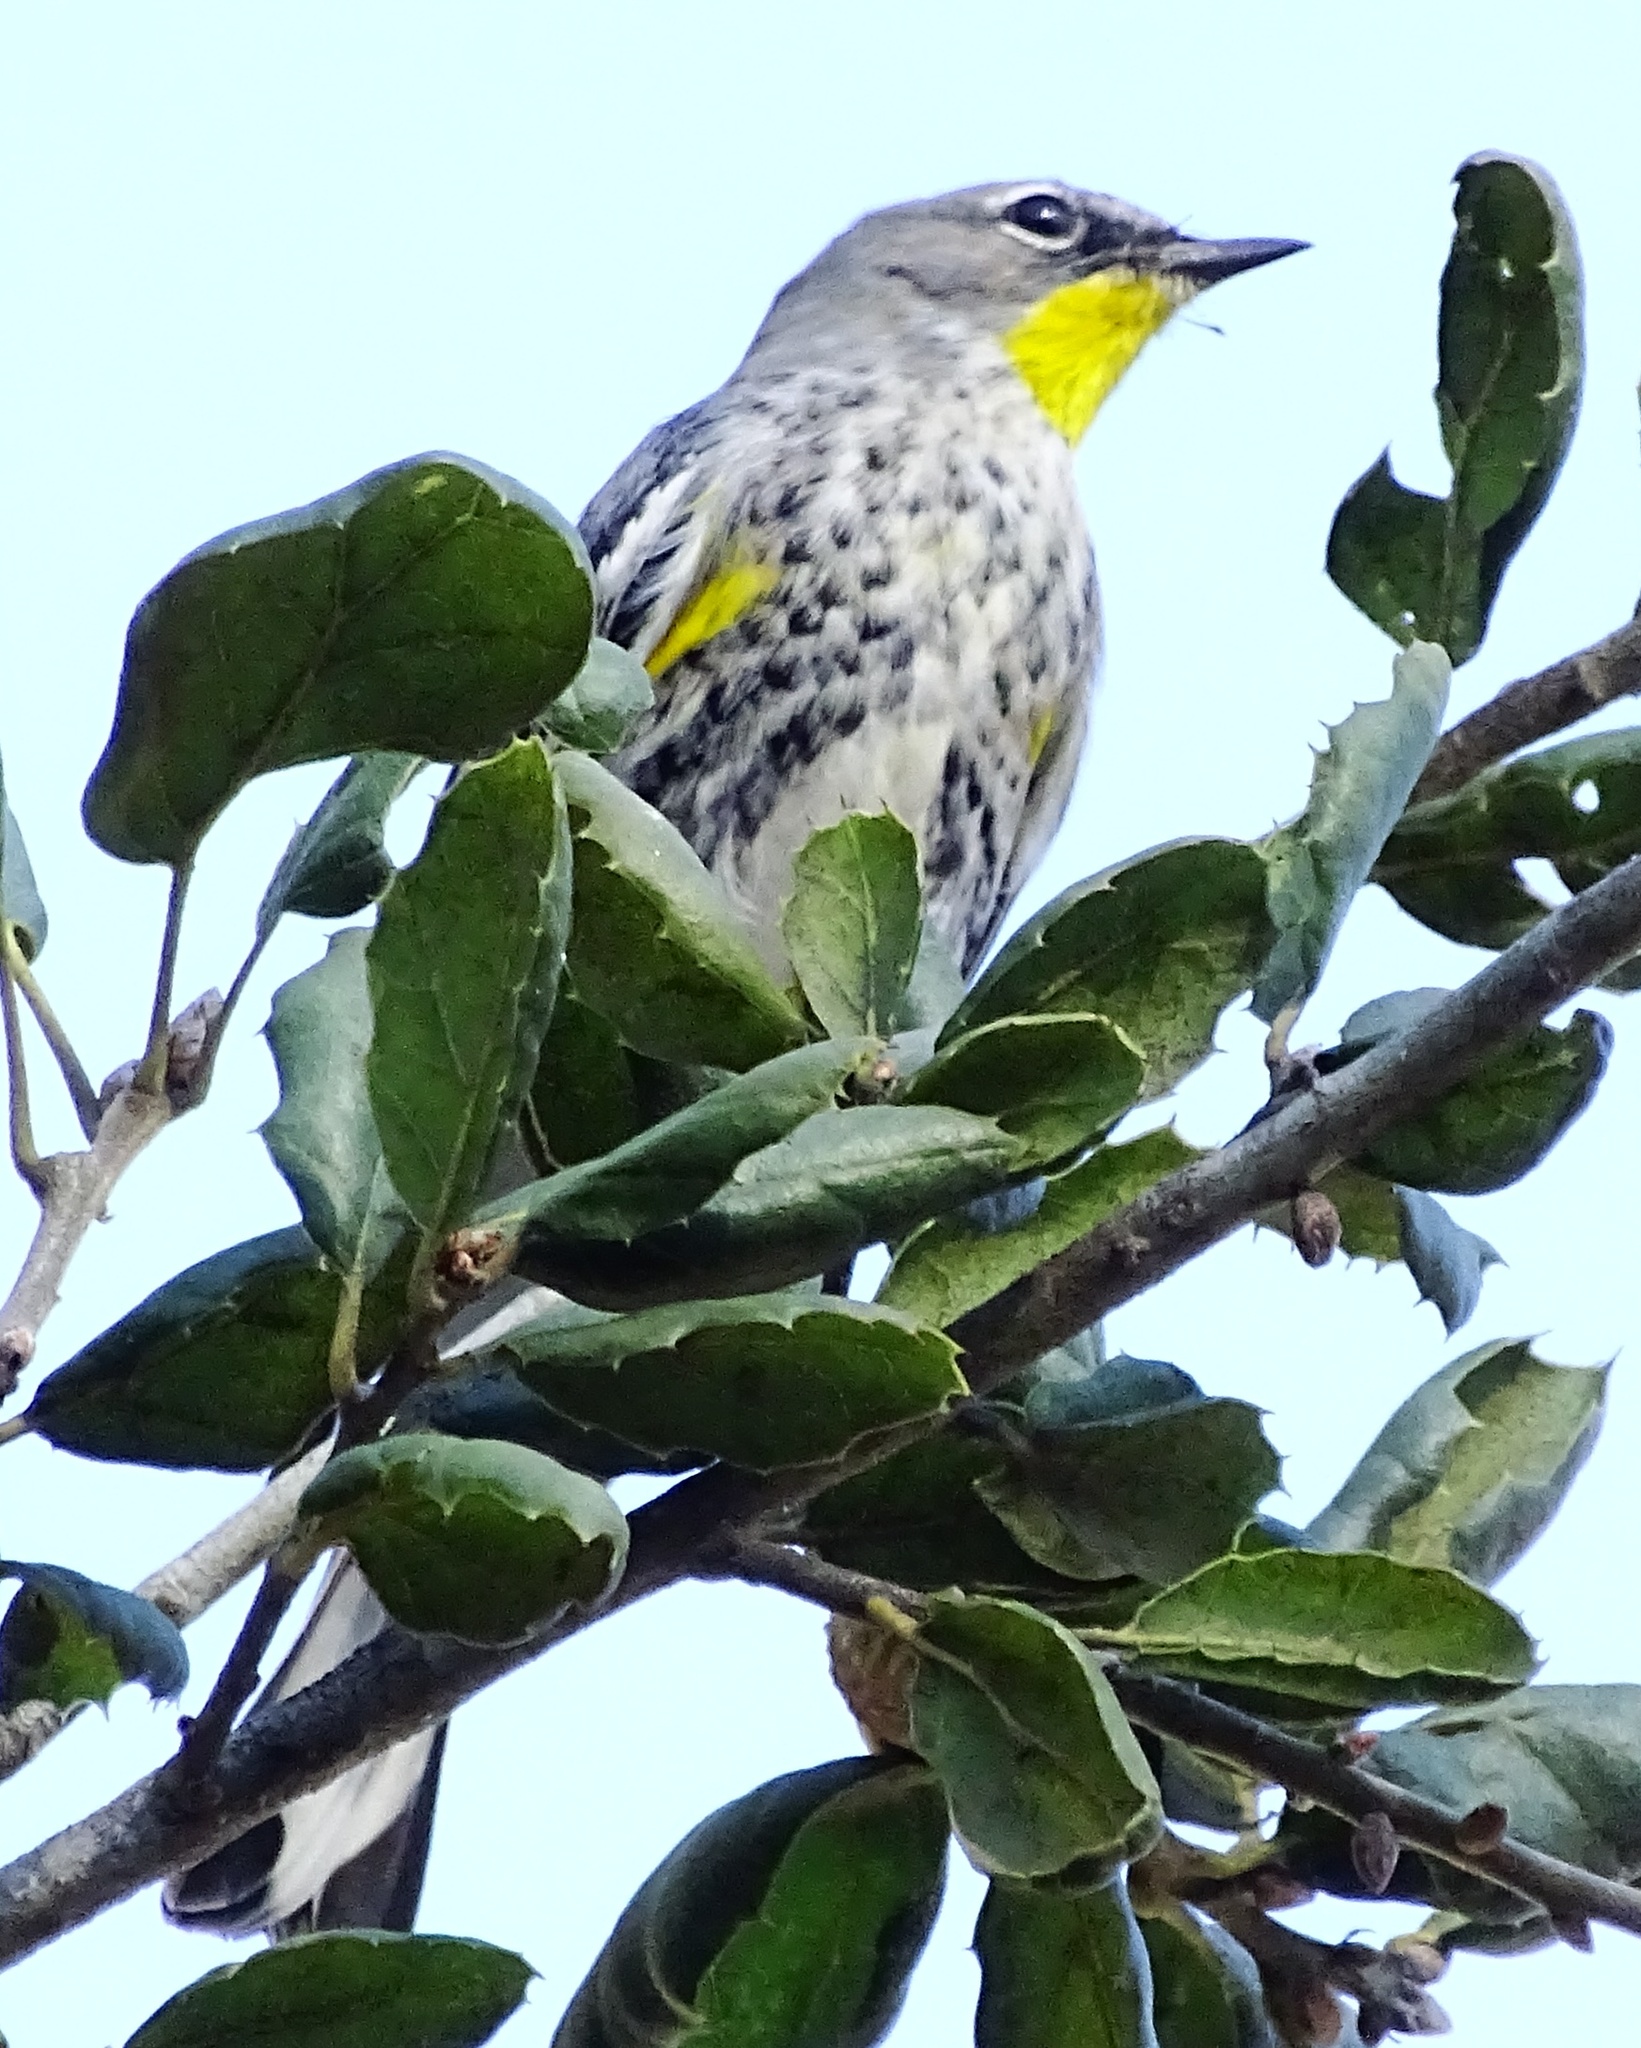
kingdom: Animalia
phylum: Chordata
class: Aves
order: Passeriformes
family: Parulidae
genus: Setophaga
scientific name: Setophaga coronata
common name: Myrtle warbler
